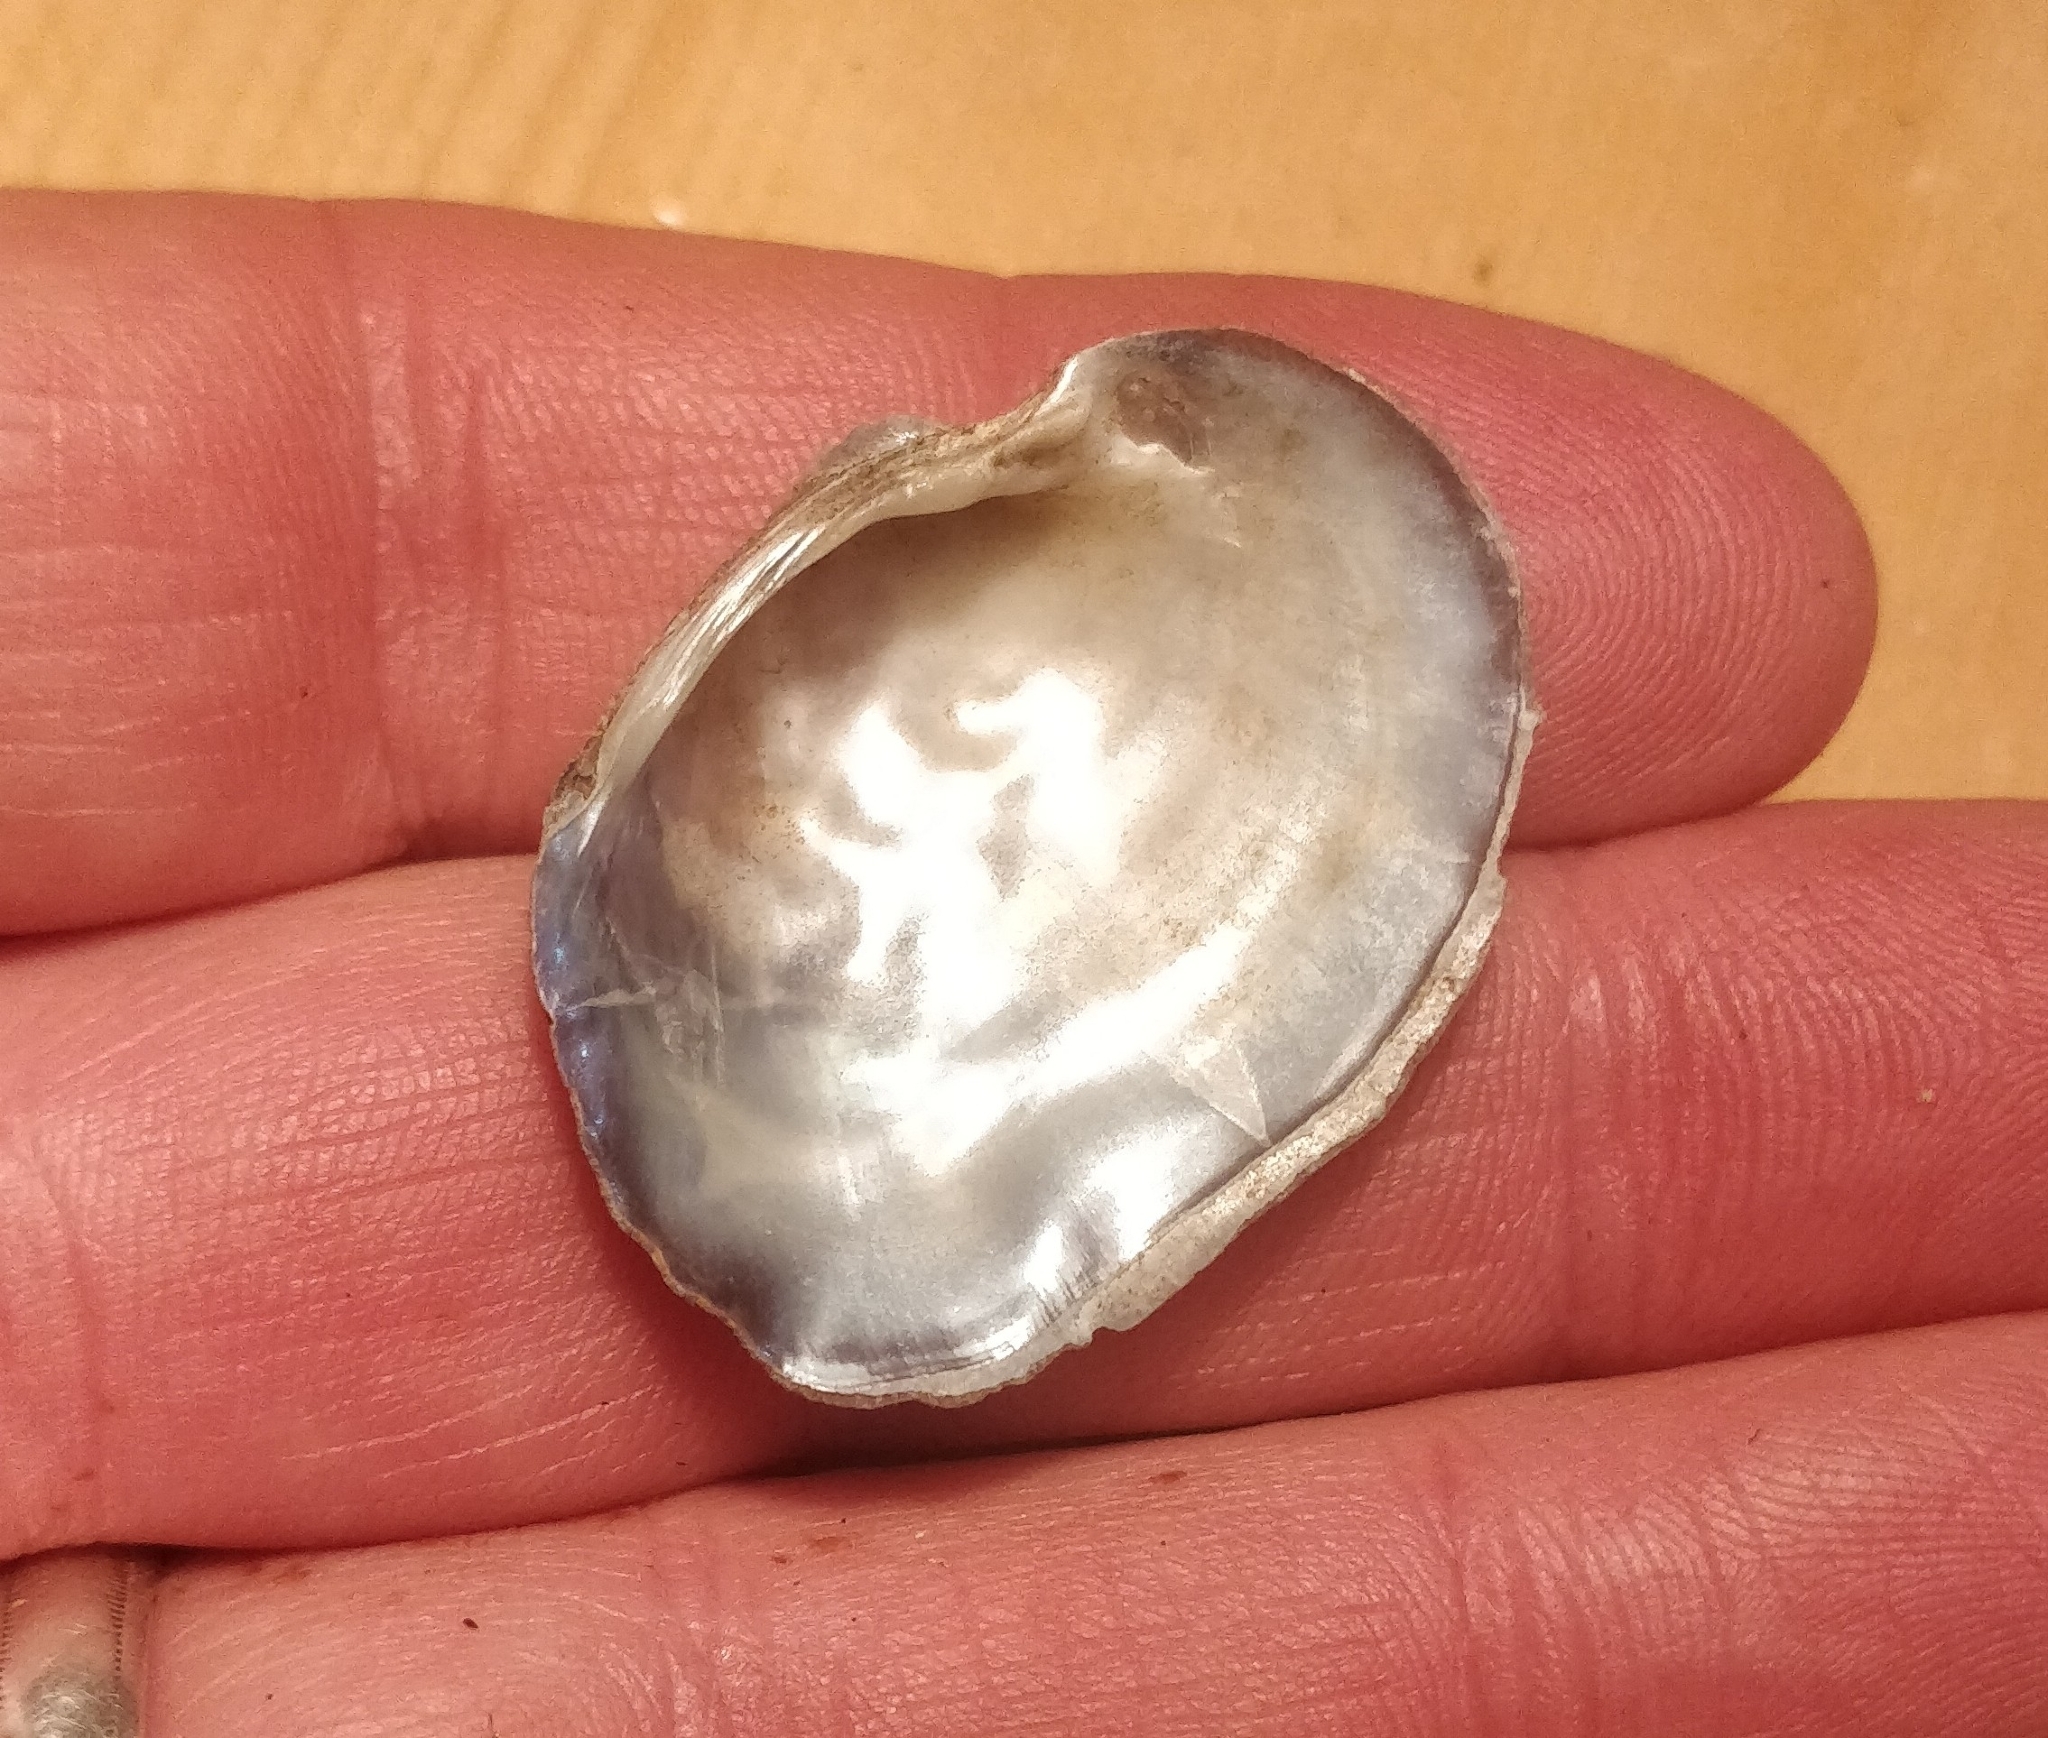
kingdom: Animalia
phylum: Mollusca
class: Bivalvia
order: Unionida
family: Unionidae
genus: Arcidens
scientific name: Arcidens confragosus
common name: Rock pocketbook
